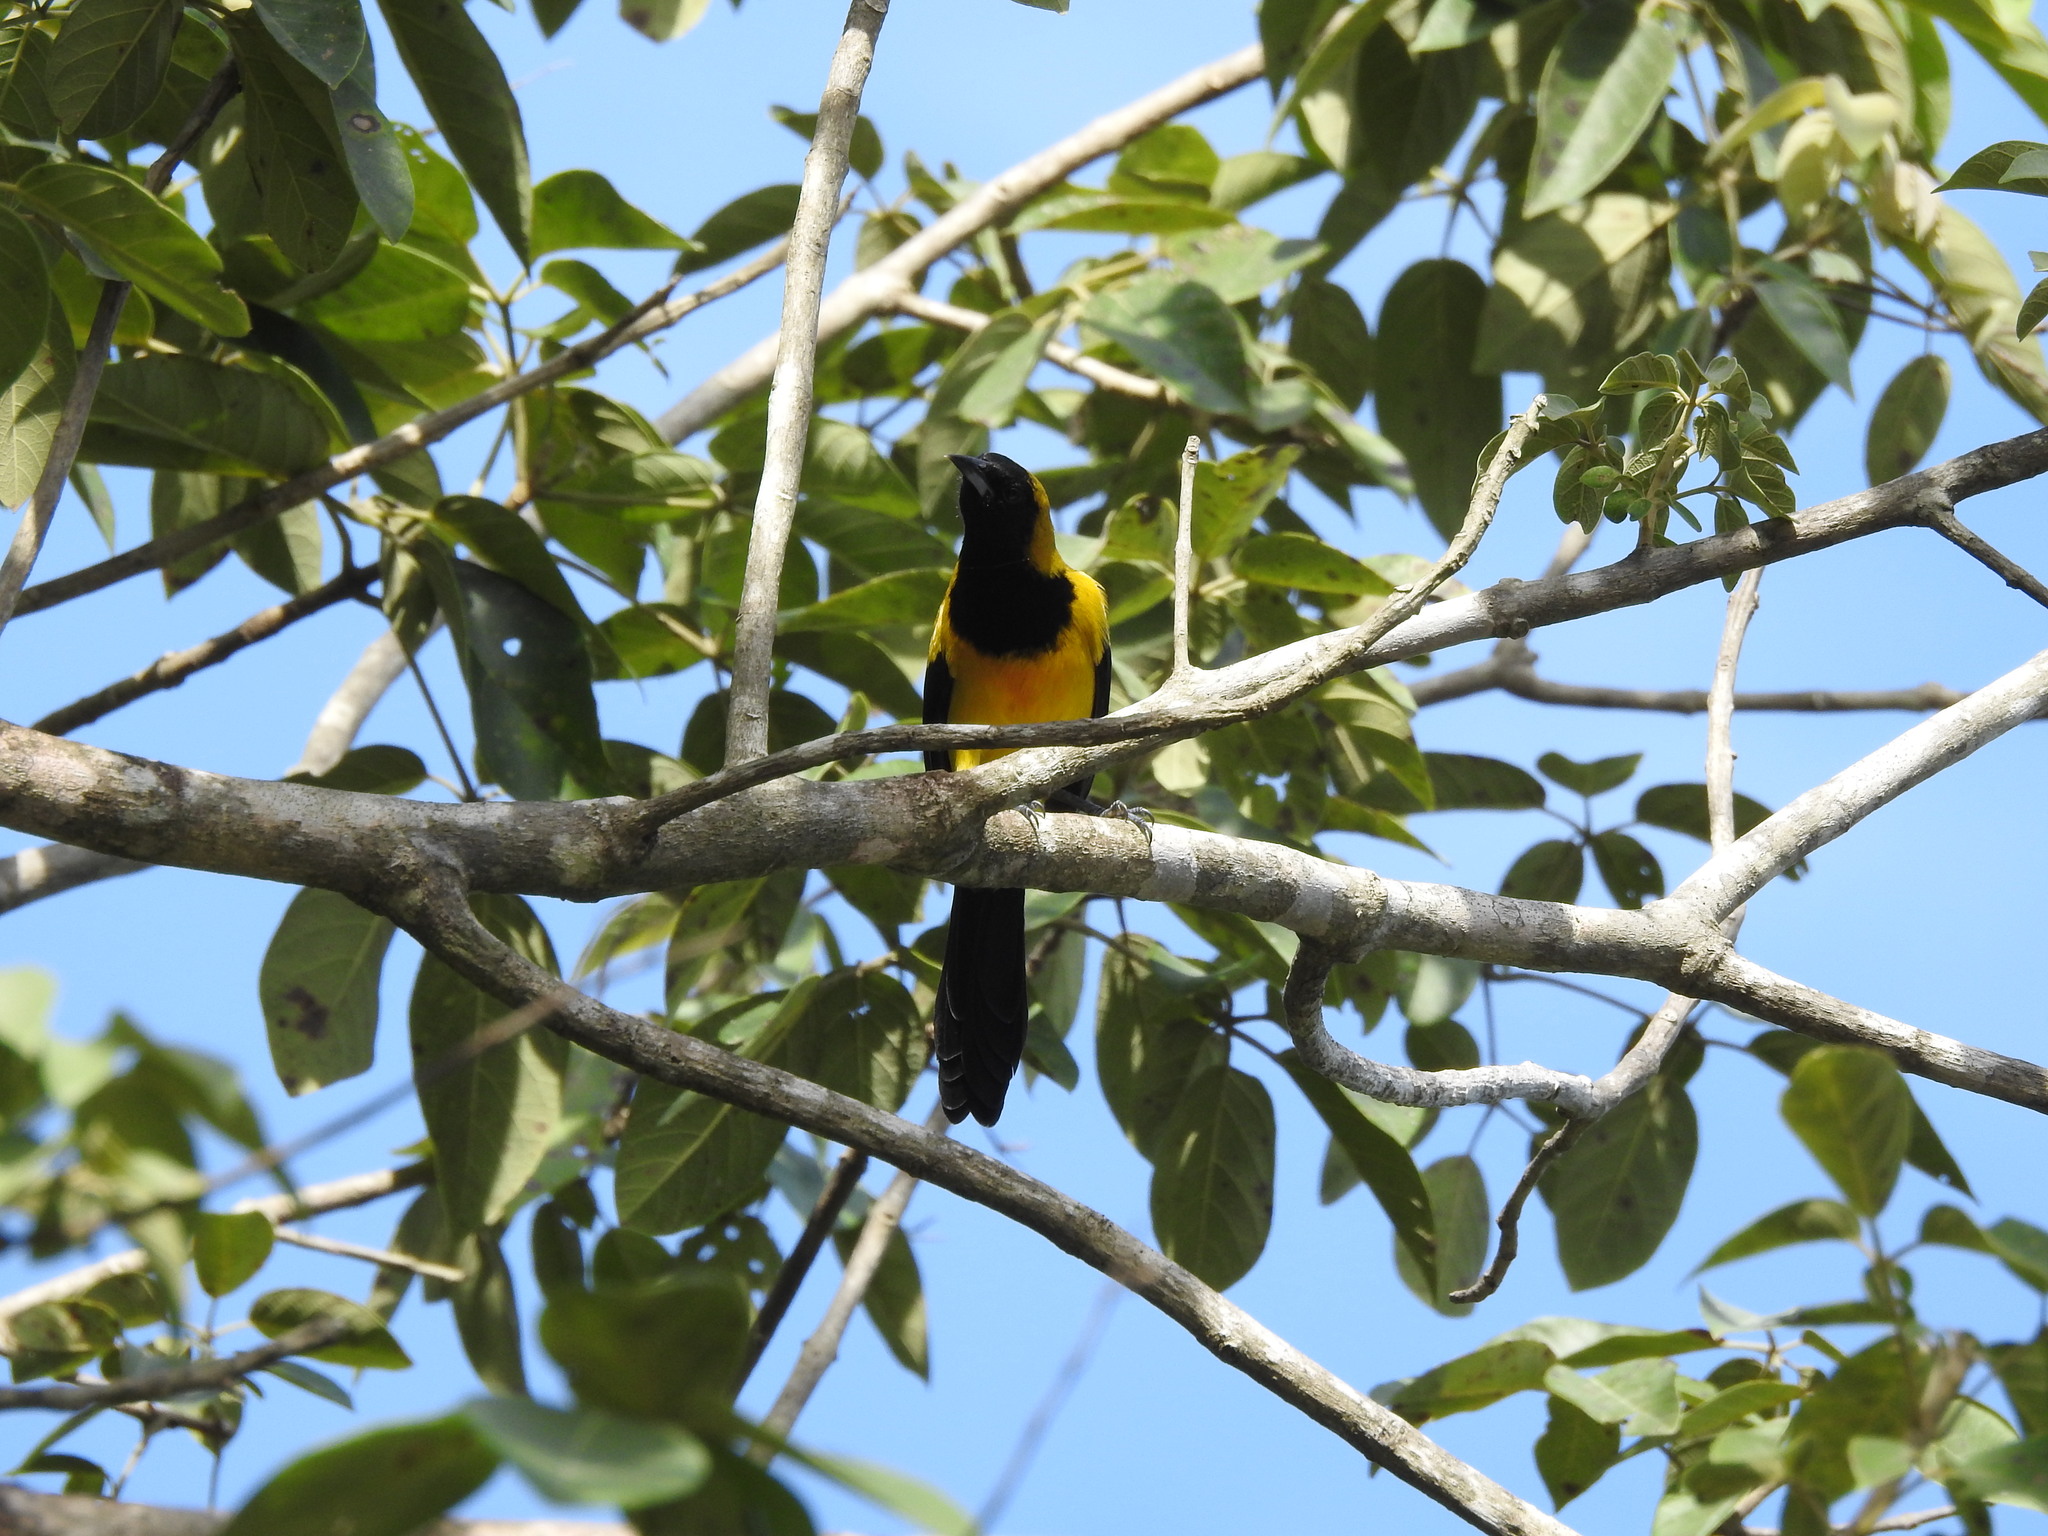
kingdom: Animalia
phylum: Chordata
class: Aves
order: Passeriformes
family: Icteridae
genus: Icterus
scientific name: Icterus prosthemelas
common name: Black-cowled oriole
